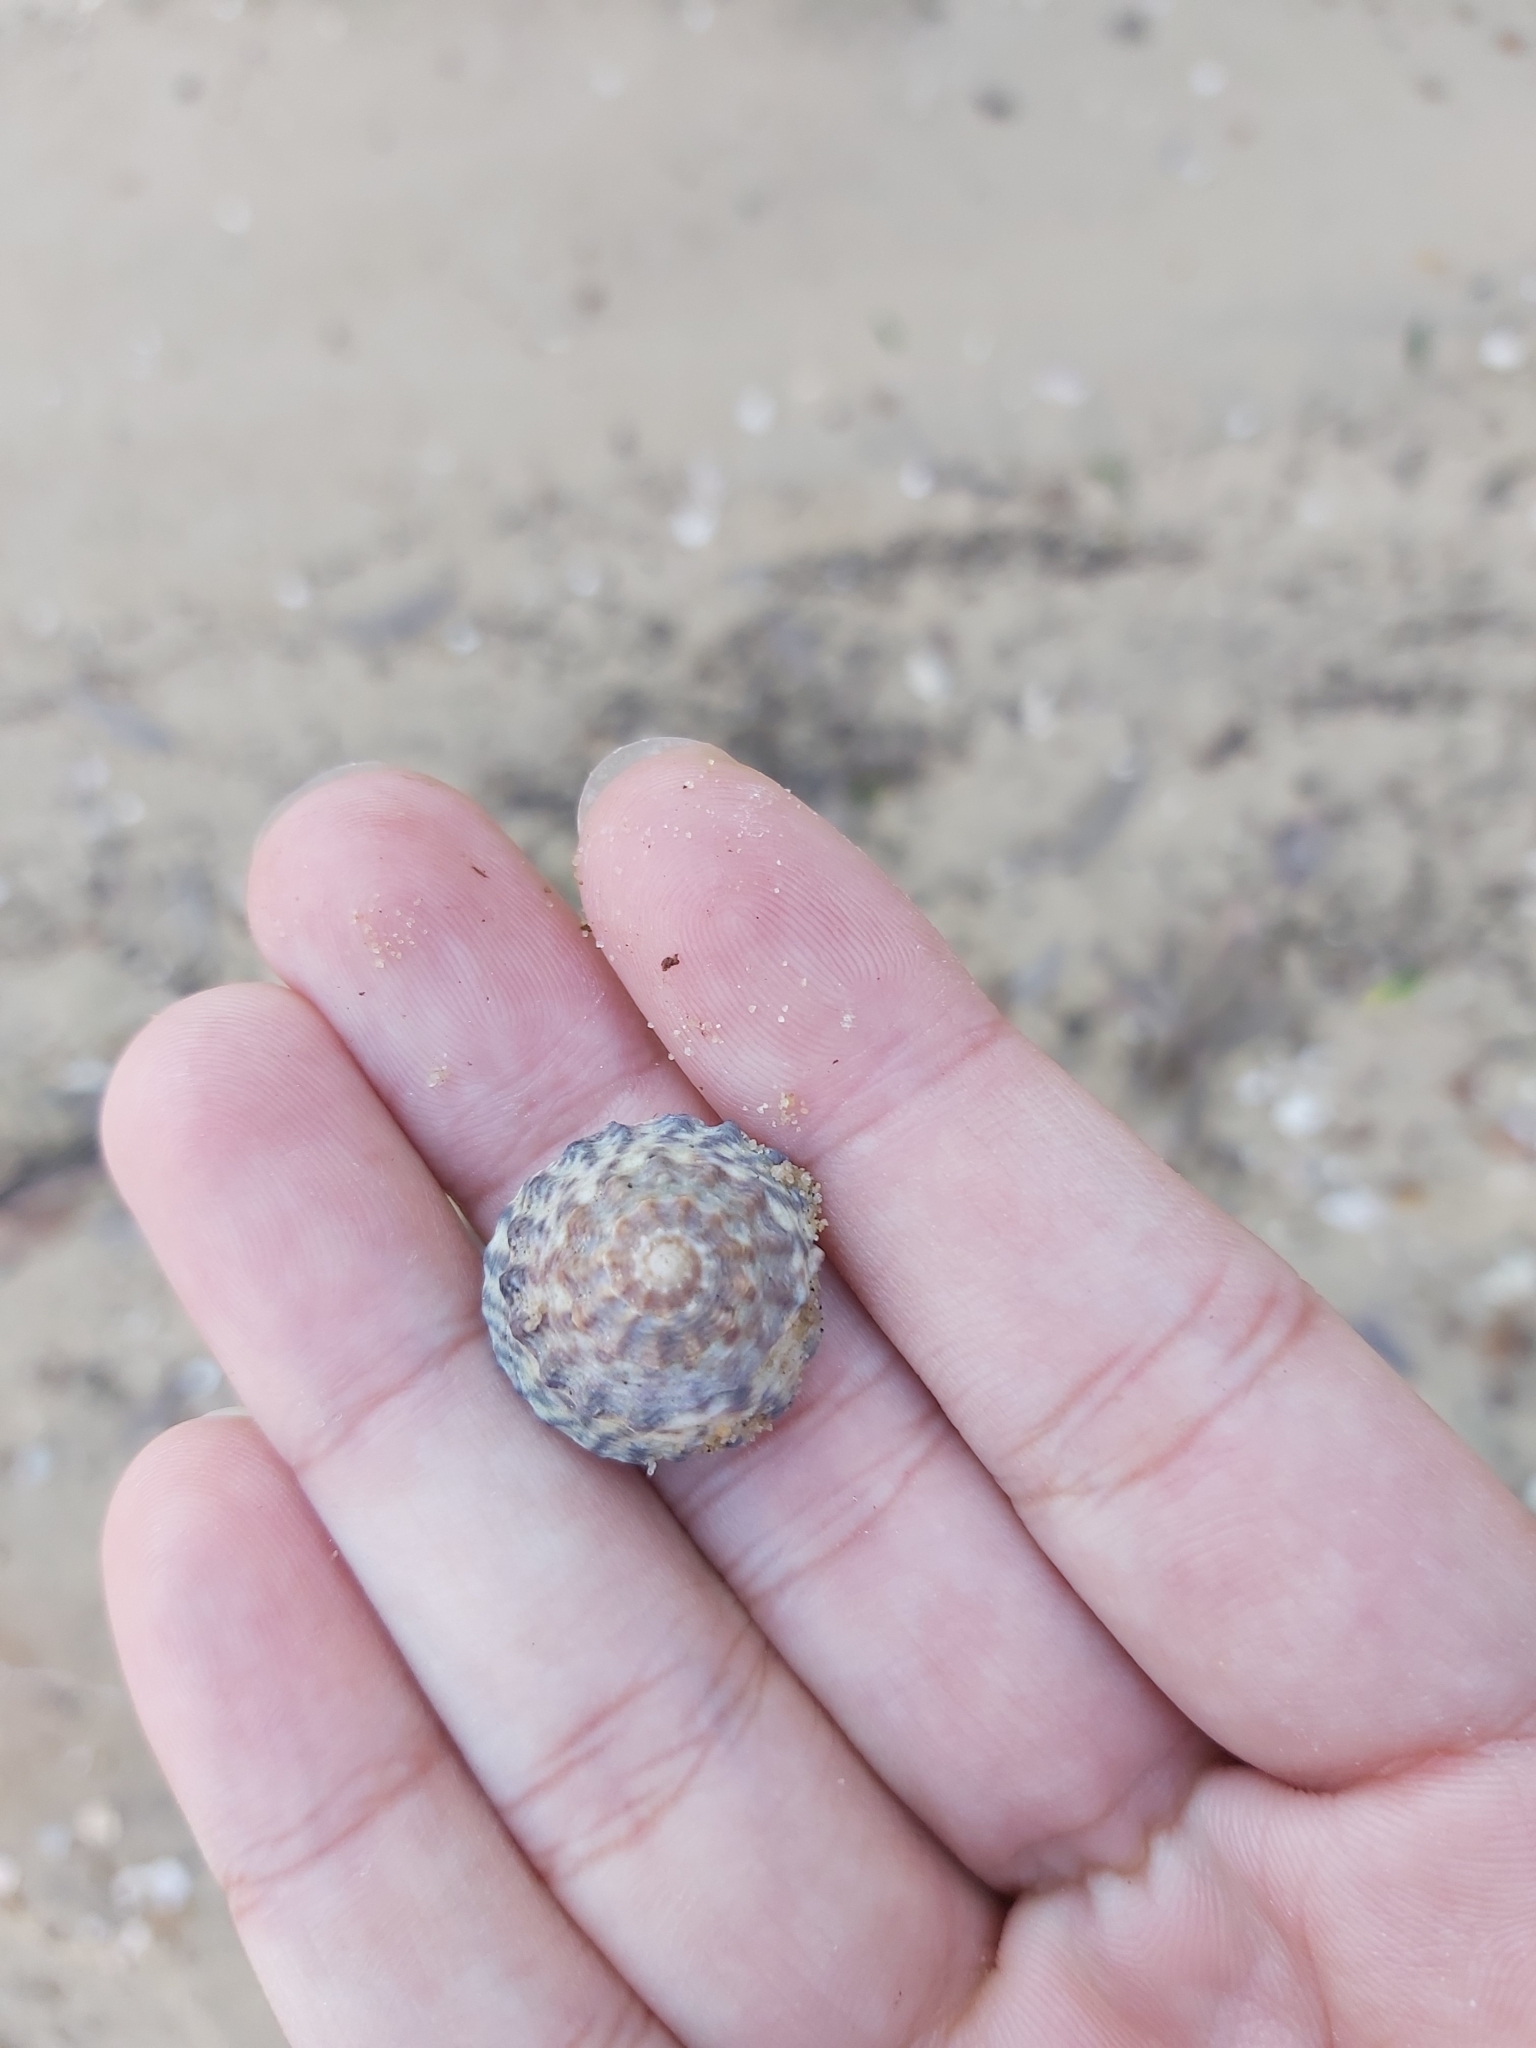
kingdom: Animalia
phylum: Mollusca
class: Gastropoda
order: Littorinimorpha
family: Littorinidae
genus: Bembicium
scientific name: Bembicium nanum
